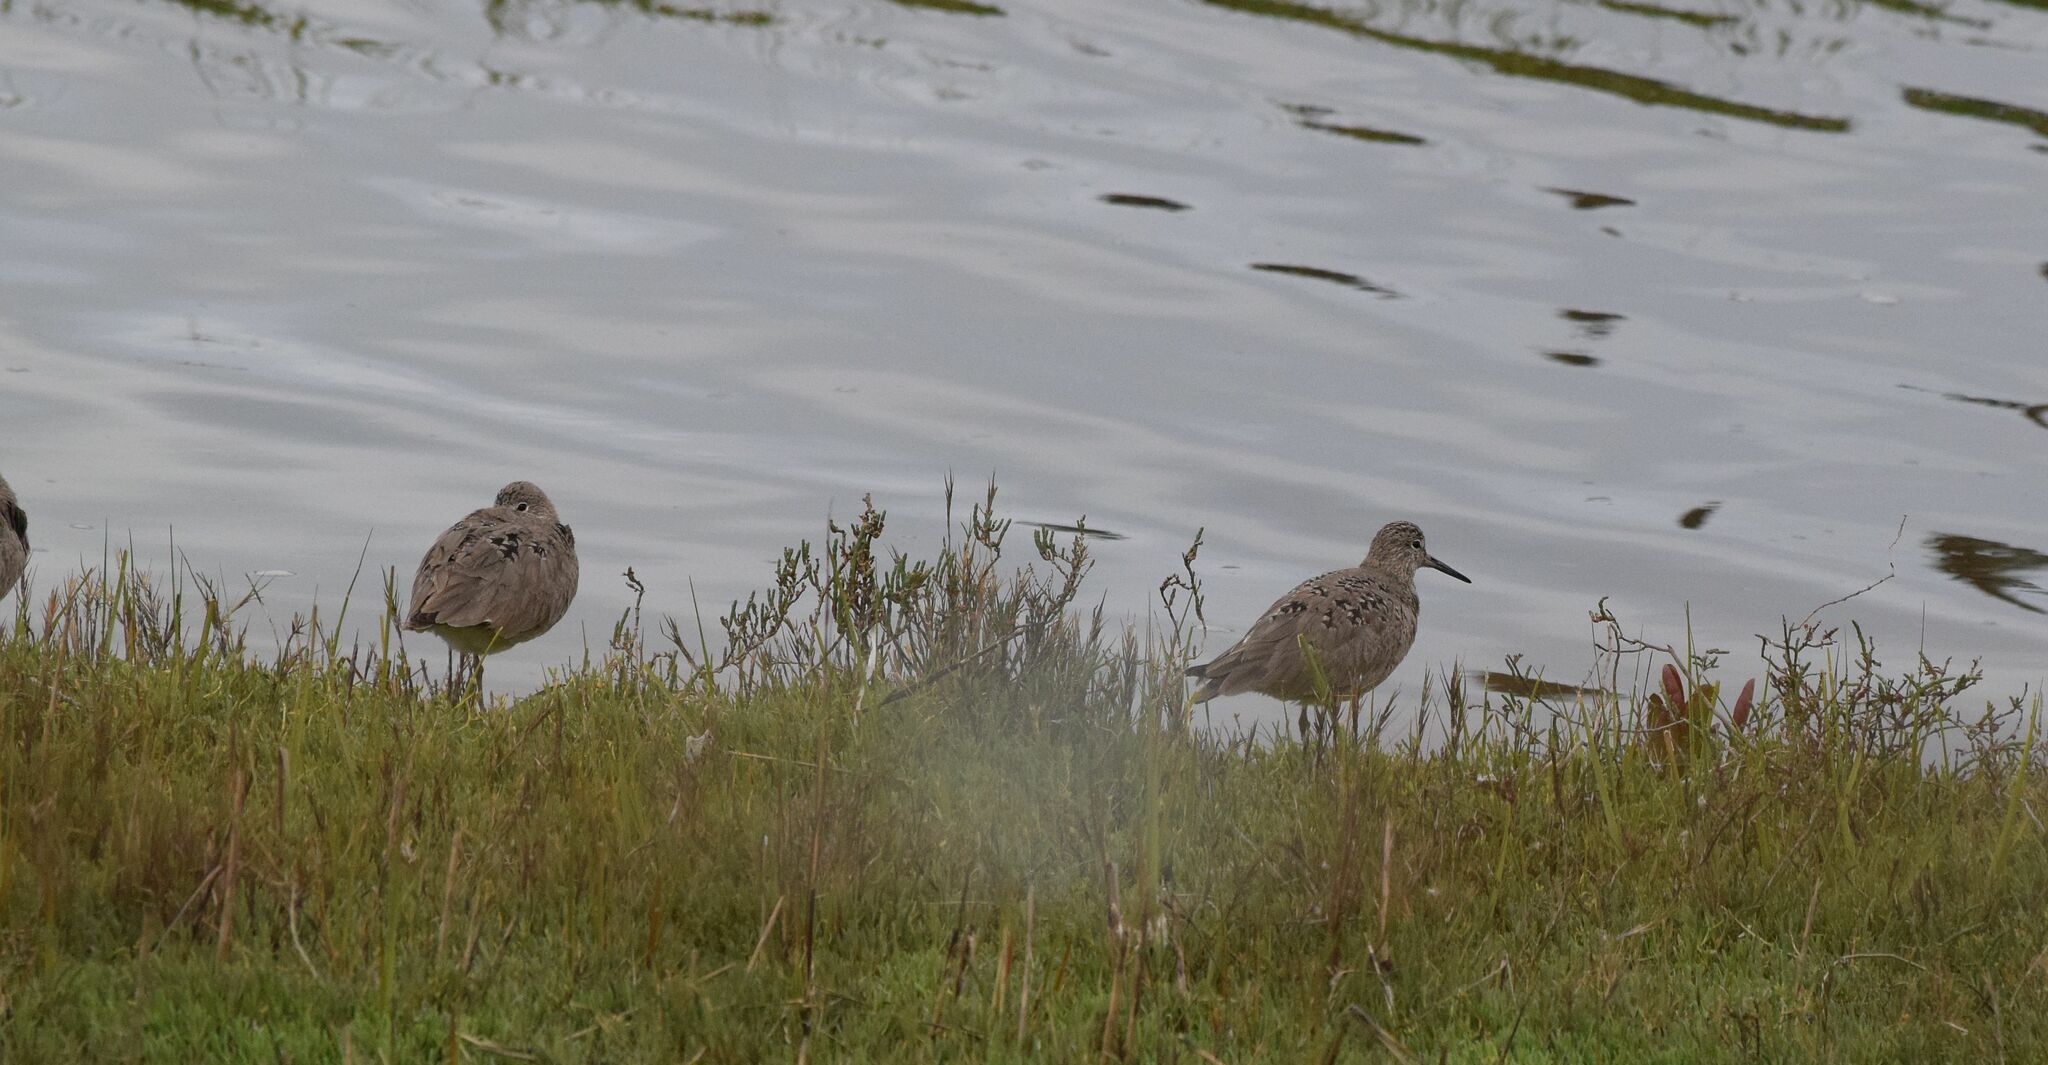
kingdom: Animalia
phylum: Chordata
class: Aves
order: Charadriiformes
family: Scolopacidae
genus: Tringa
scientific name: Tringa semipalmata
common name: Willet
